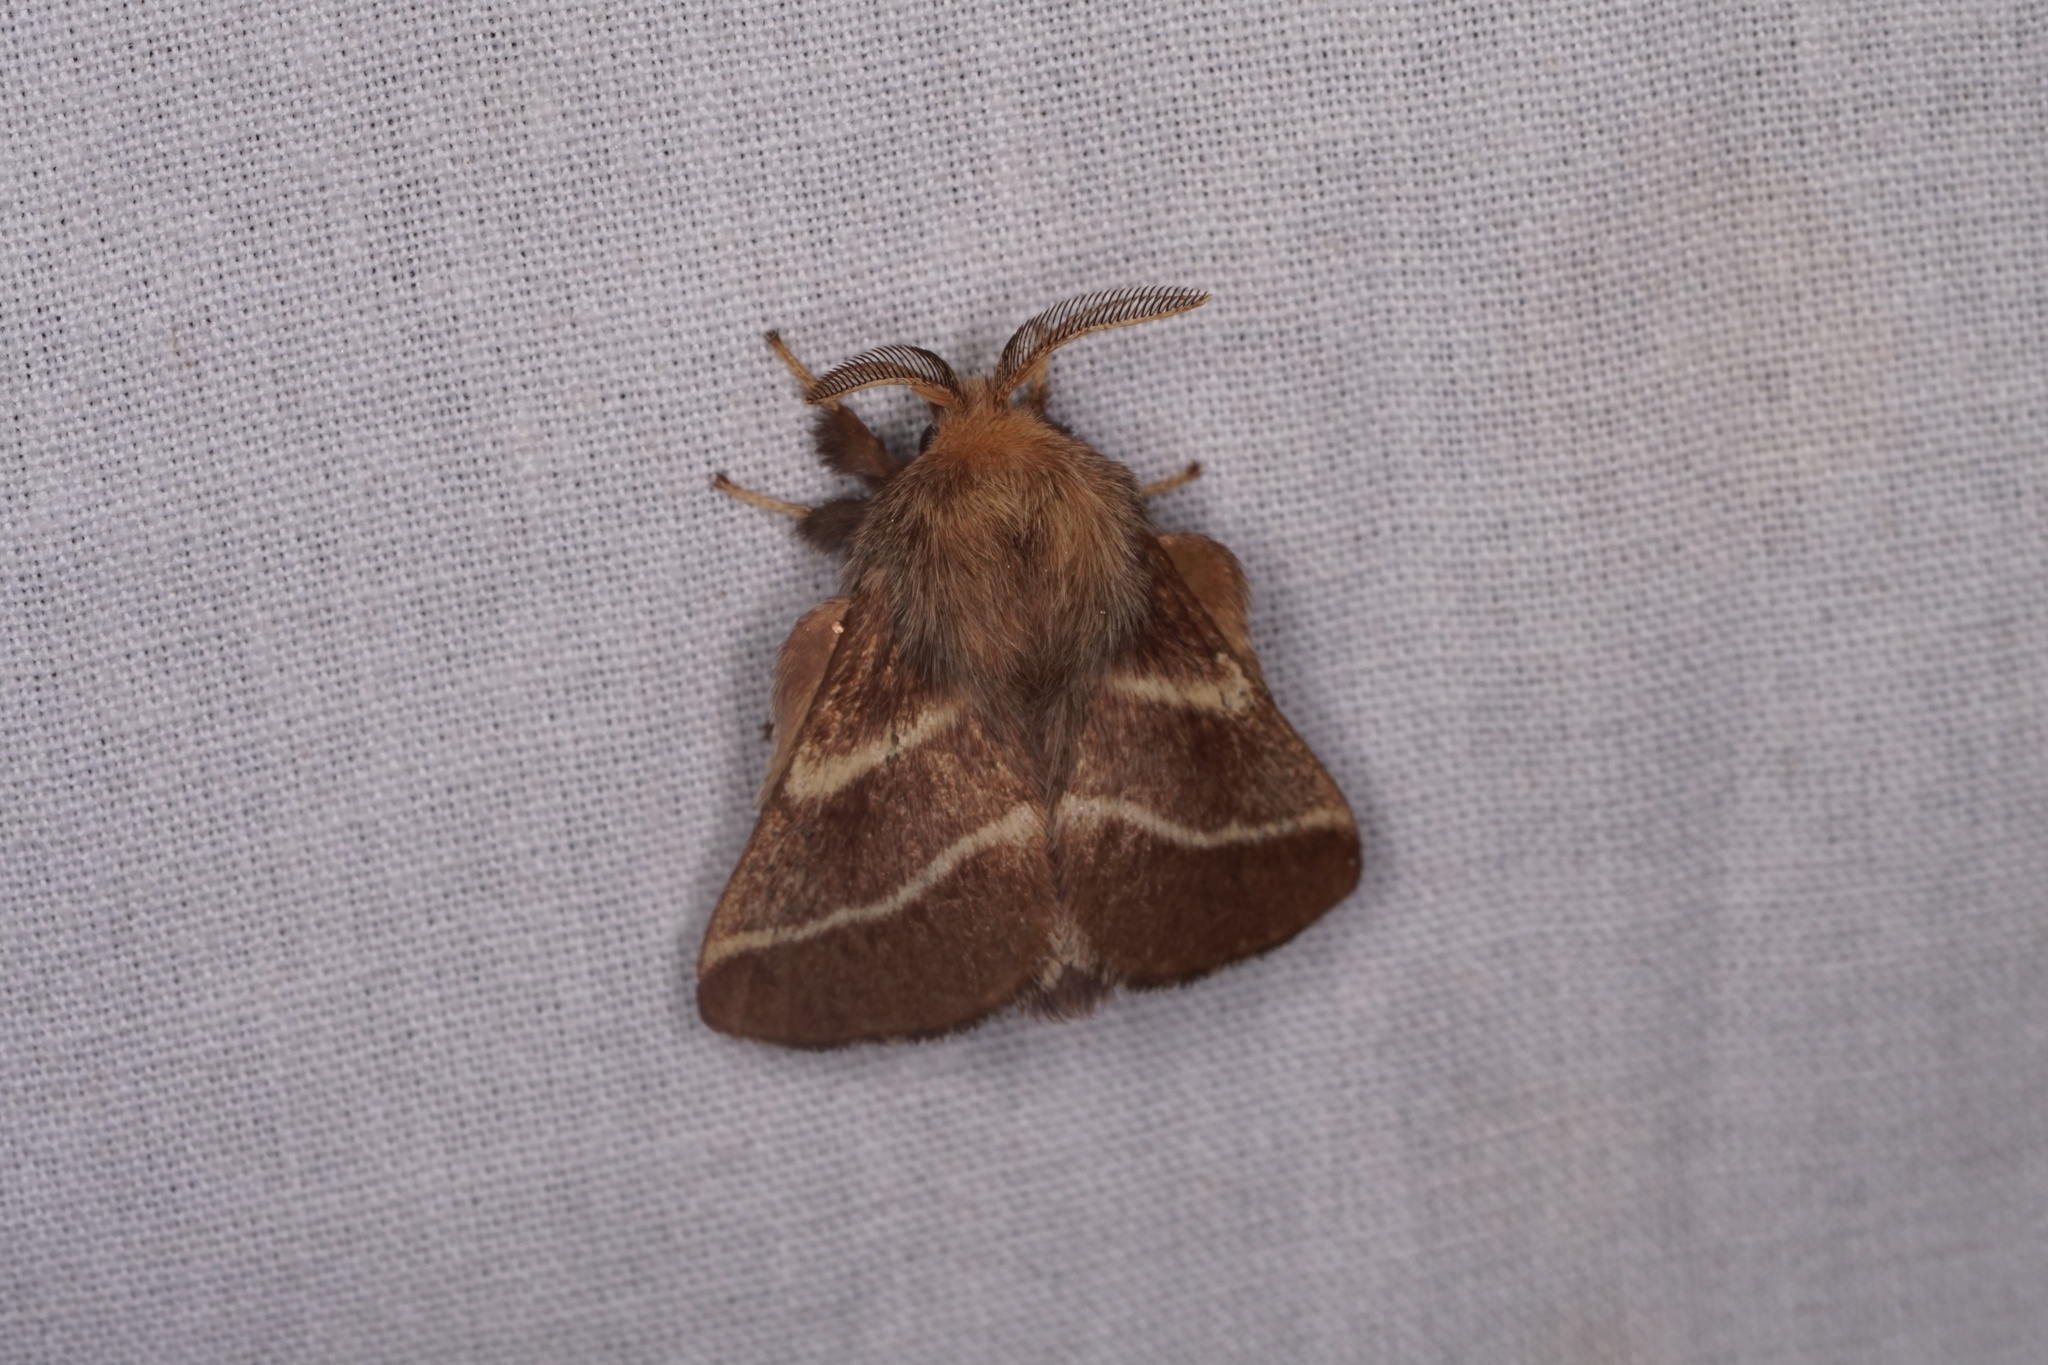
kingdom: Animalia
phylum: Arthropoda
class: Insecta
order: Lepidoptera
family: Lasiocampidae
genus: Malacosoma
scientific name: Malacosoma americana
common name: Eastern tent caterpillar moth
